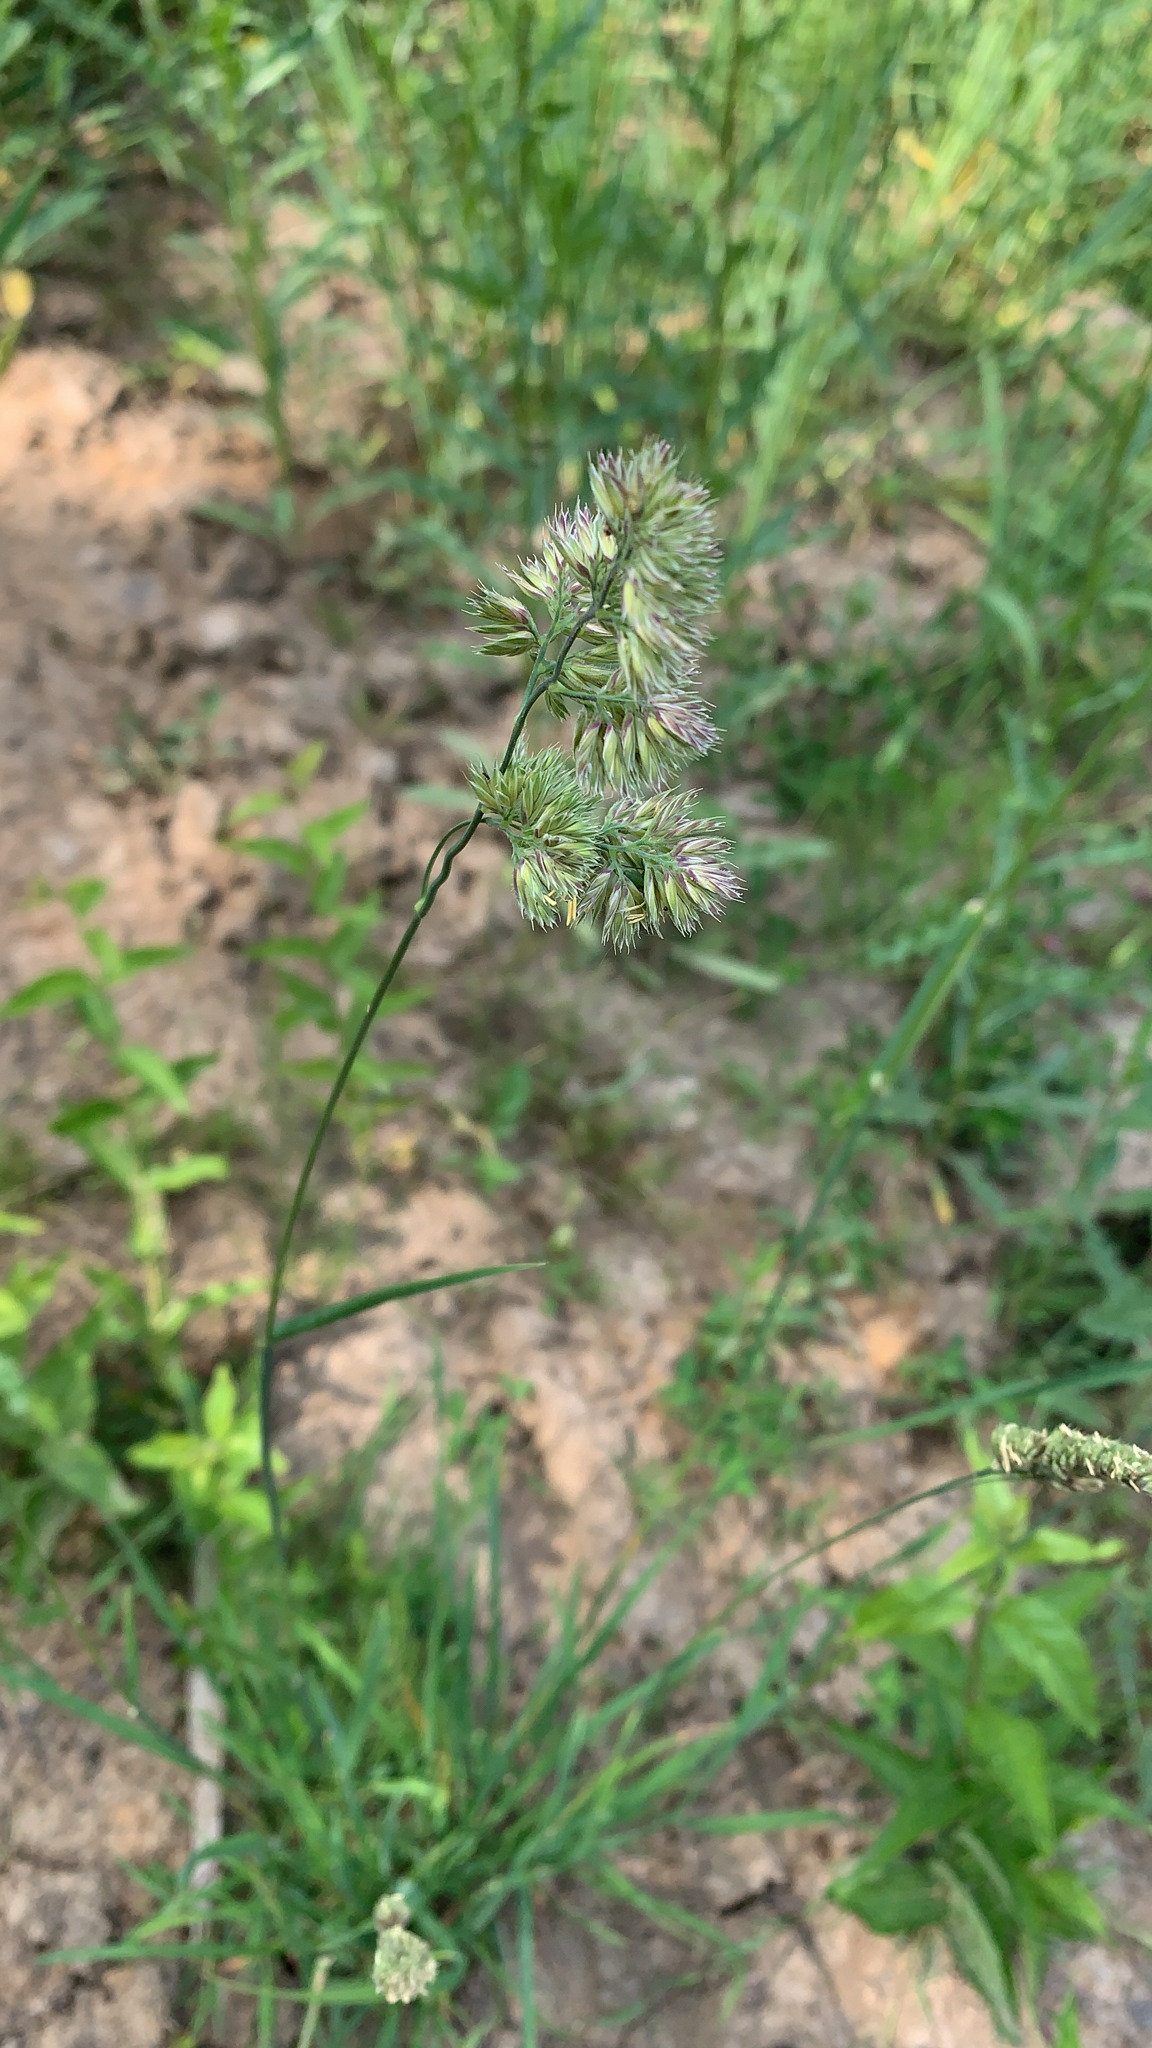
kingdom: Plantae
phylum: Tracheophyta
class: Liliopsida
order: Poales
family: Poaceae
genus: Dactylis
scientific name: Dactylis glomerata
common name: Orchardgrass
